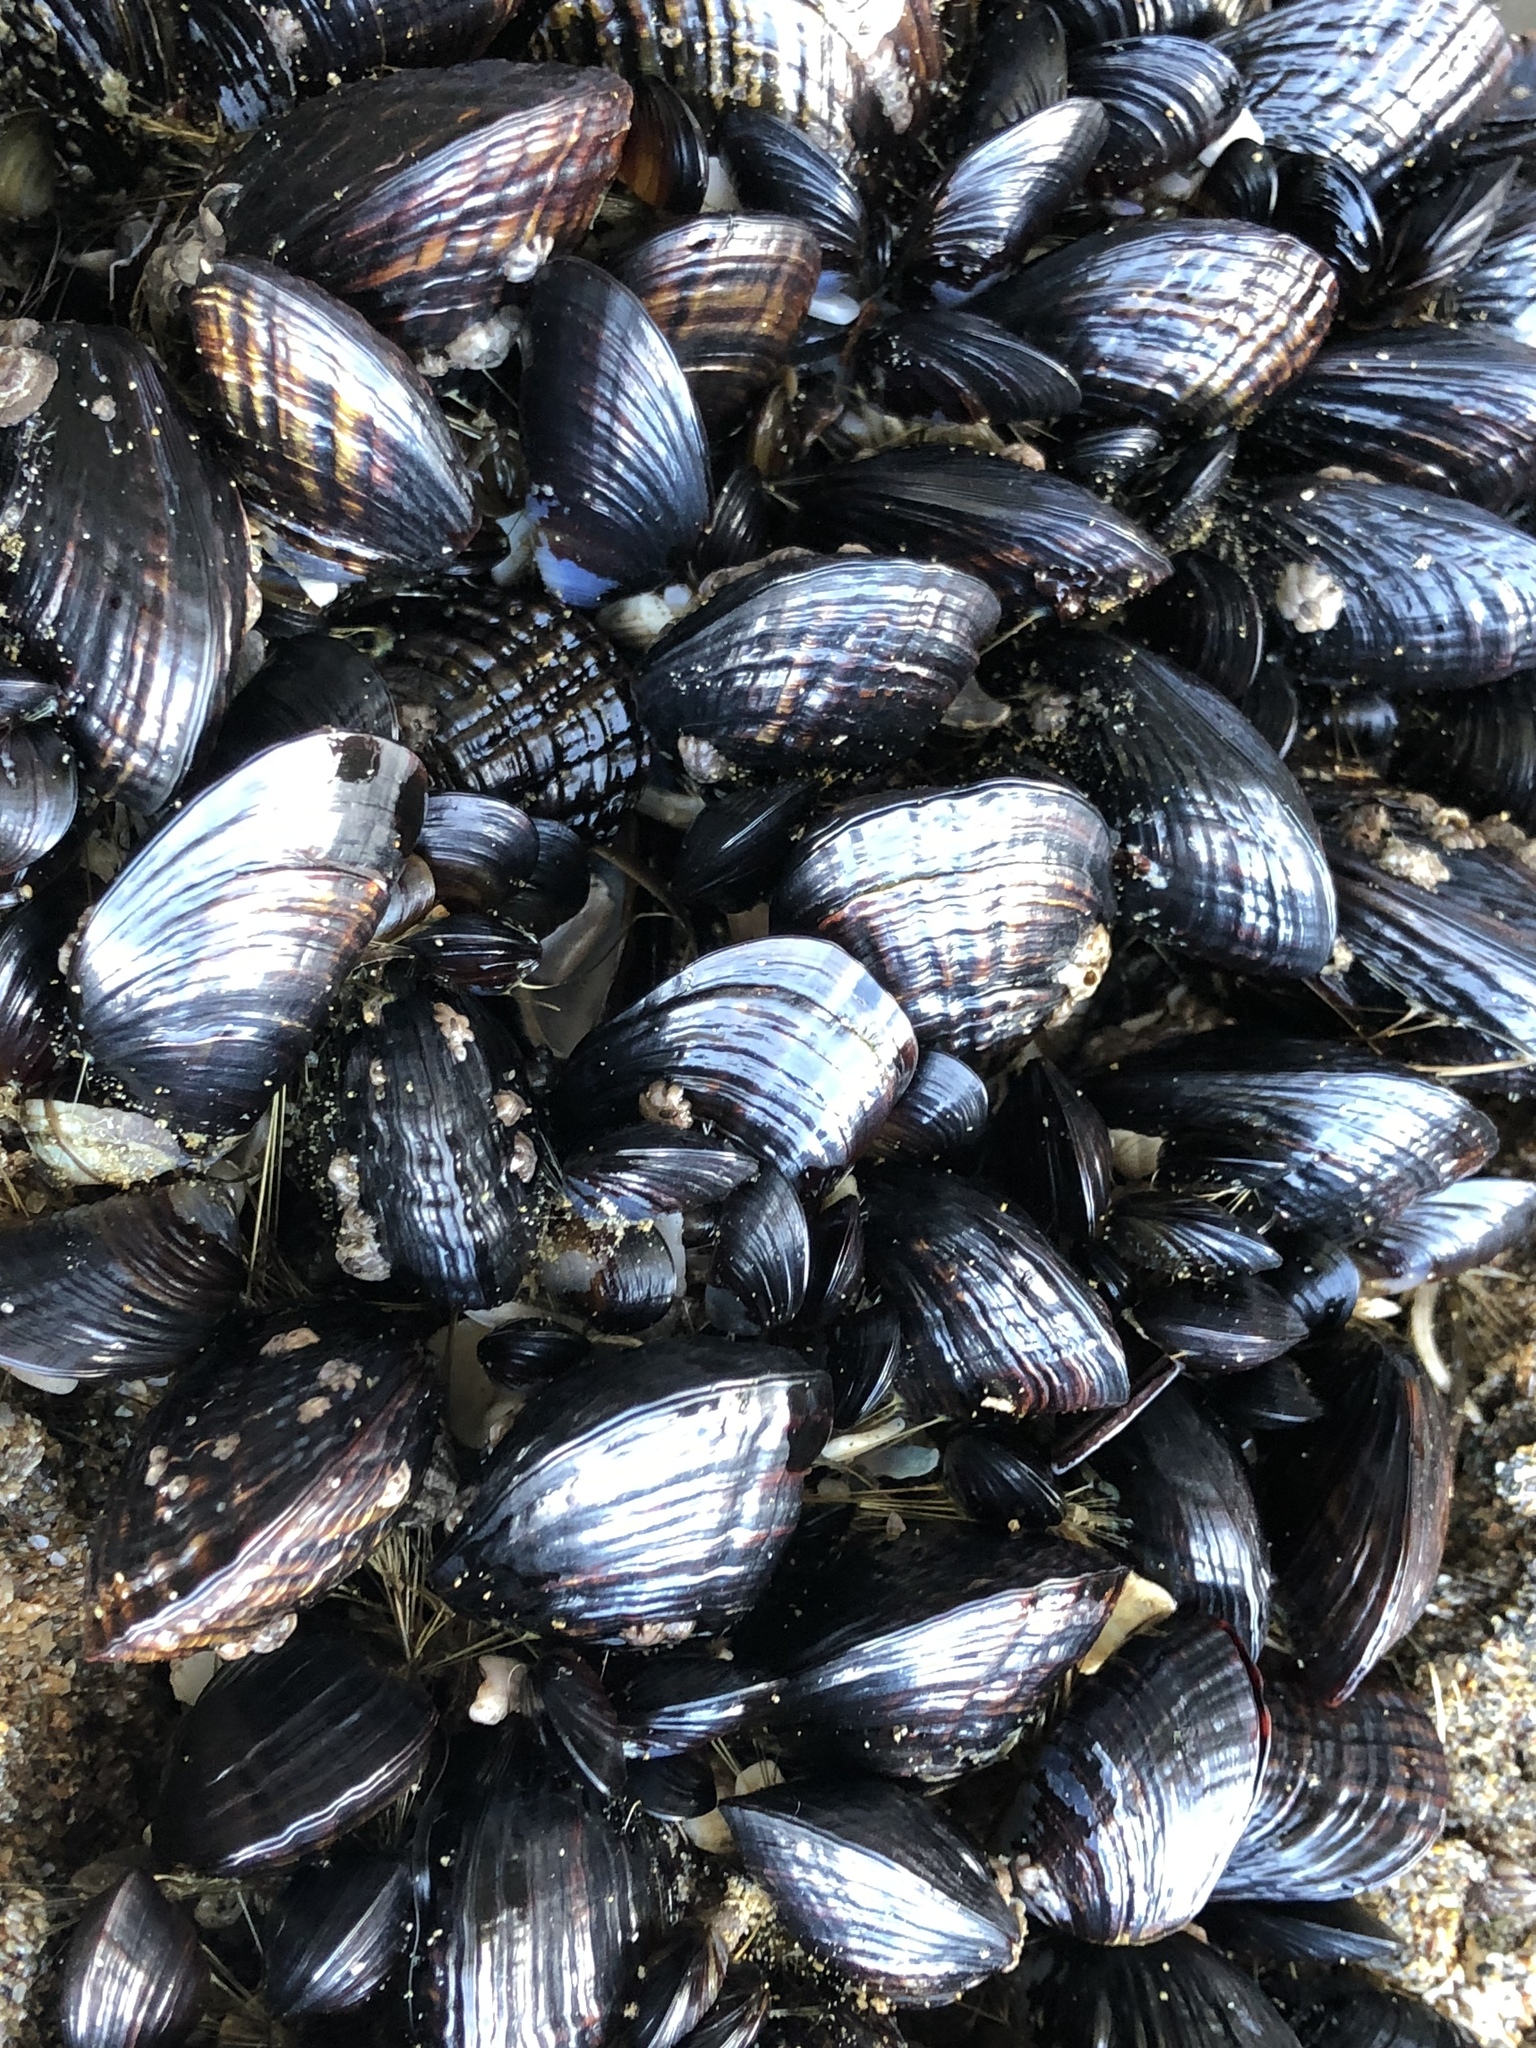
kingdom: Animalia
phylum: Mollusca
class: Bivalvia
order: Mytilida
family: Mytilidae
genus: Mytilus
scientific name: Mytilus californianus
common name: California mussel
